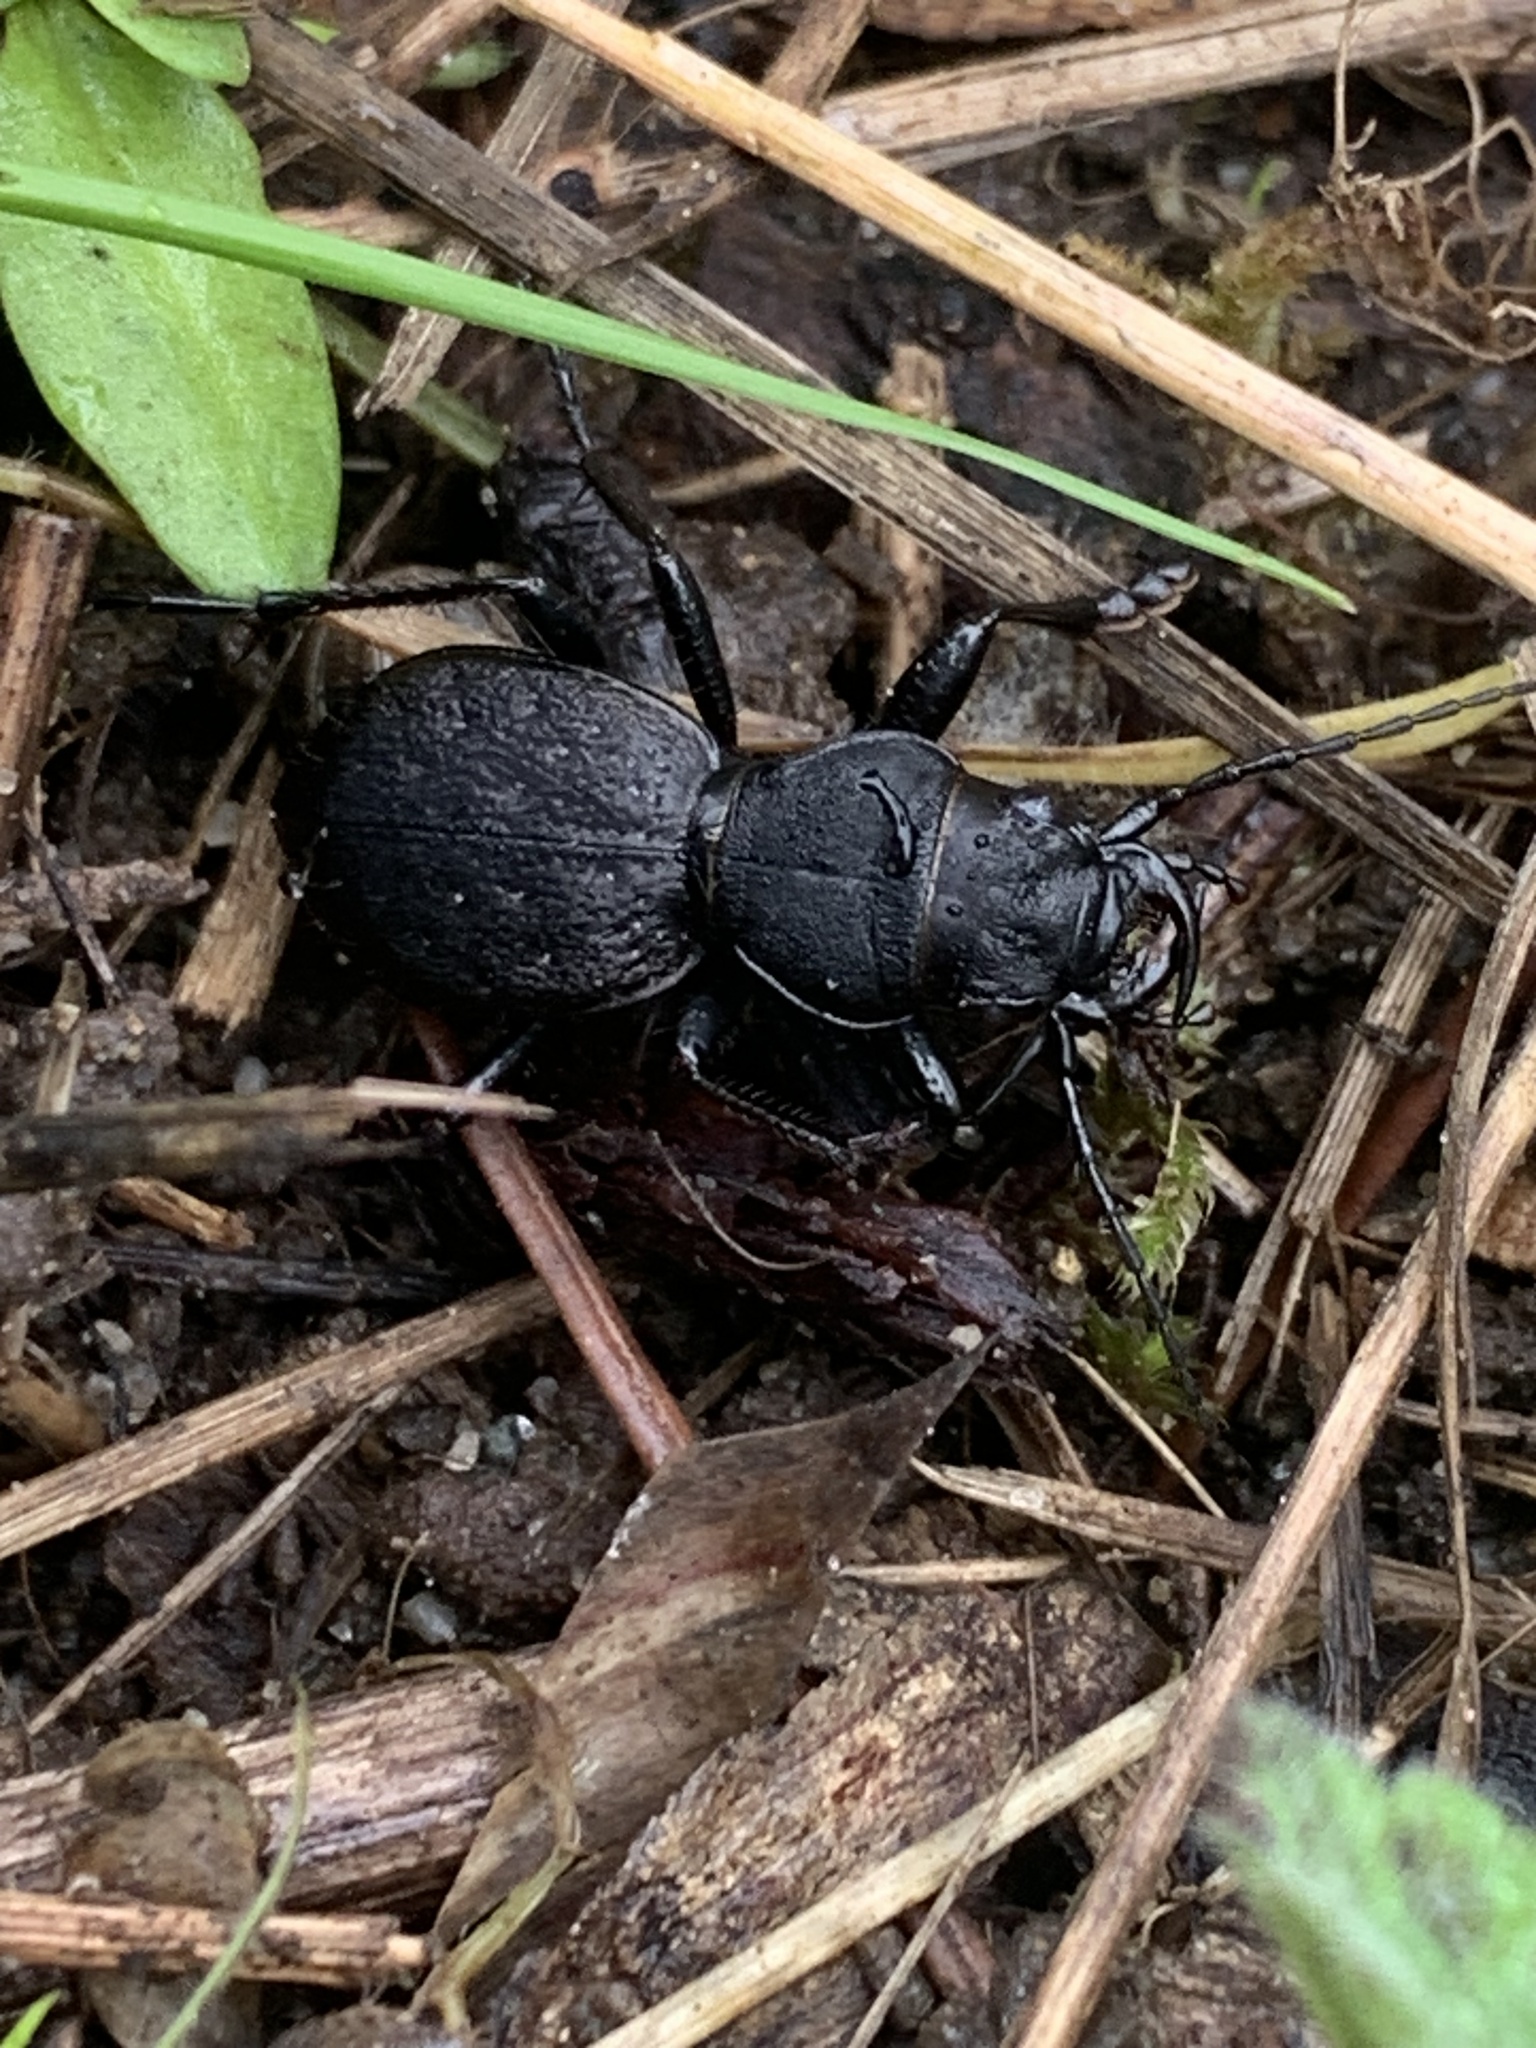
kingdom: Animalia
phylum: Arthropoda
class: Insecta
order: Coleoptera
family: Carabidae
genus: Omus
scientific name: Omus dejeanii
